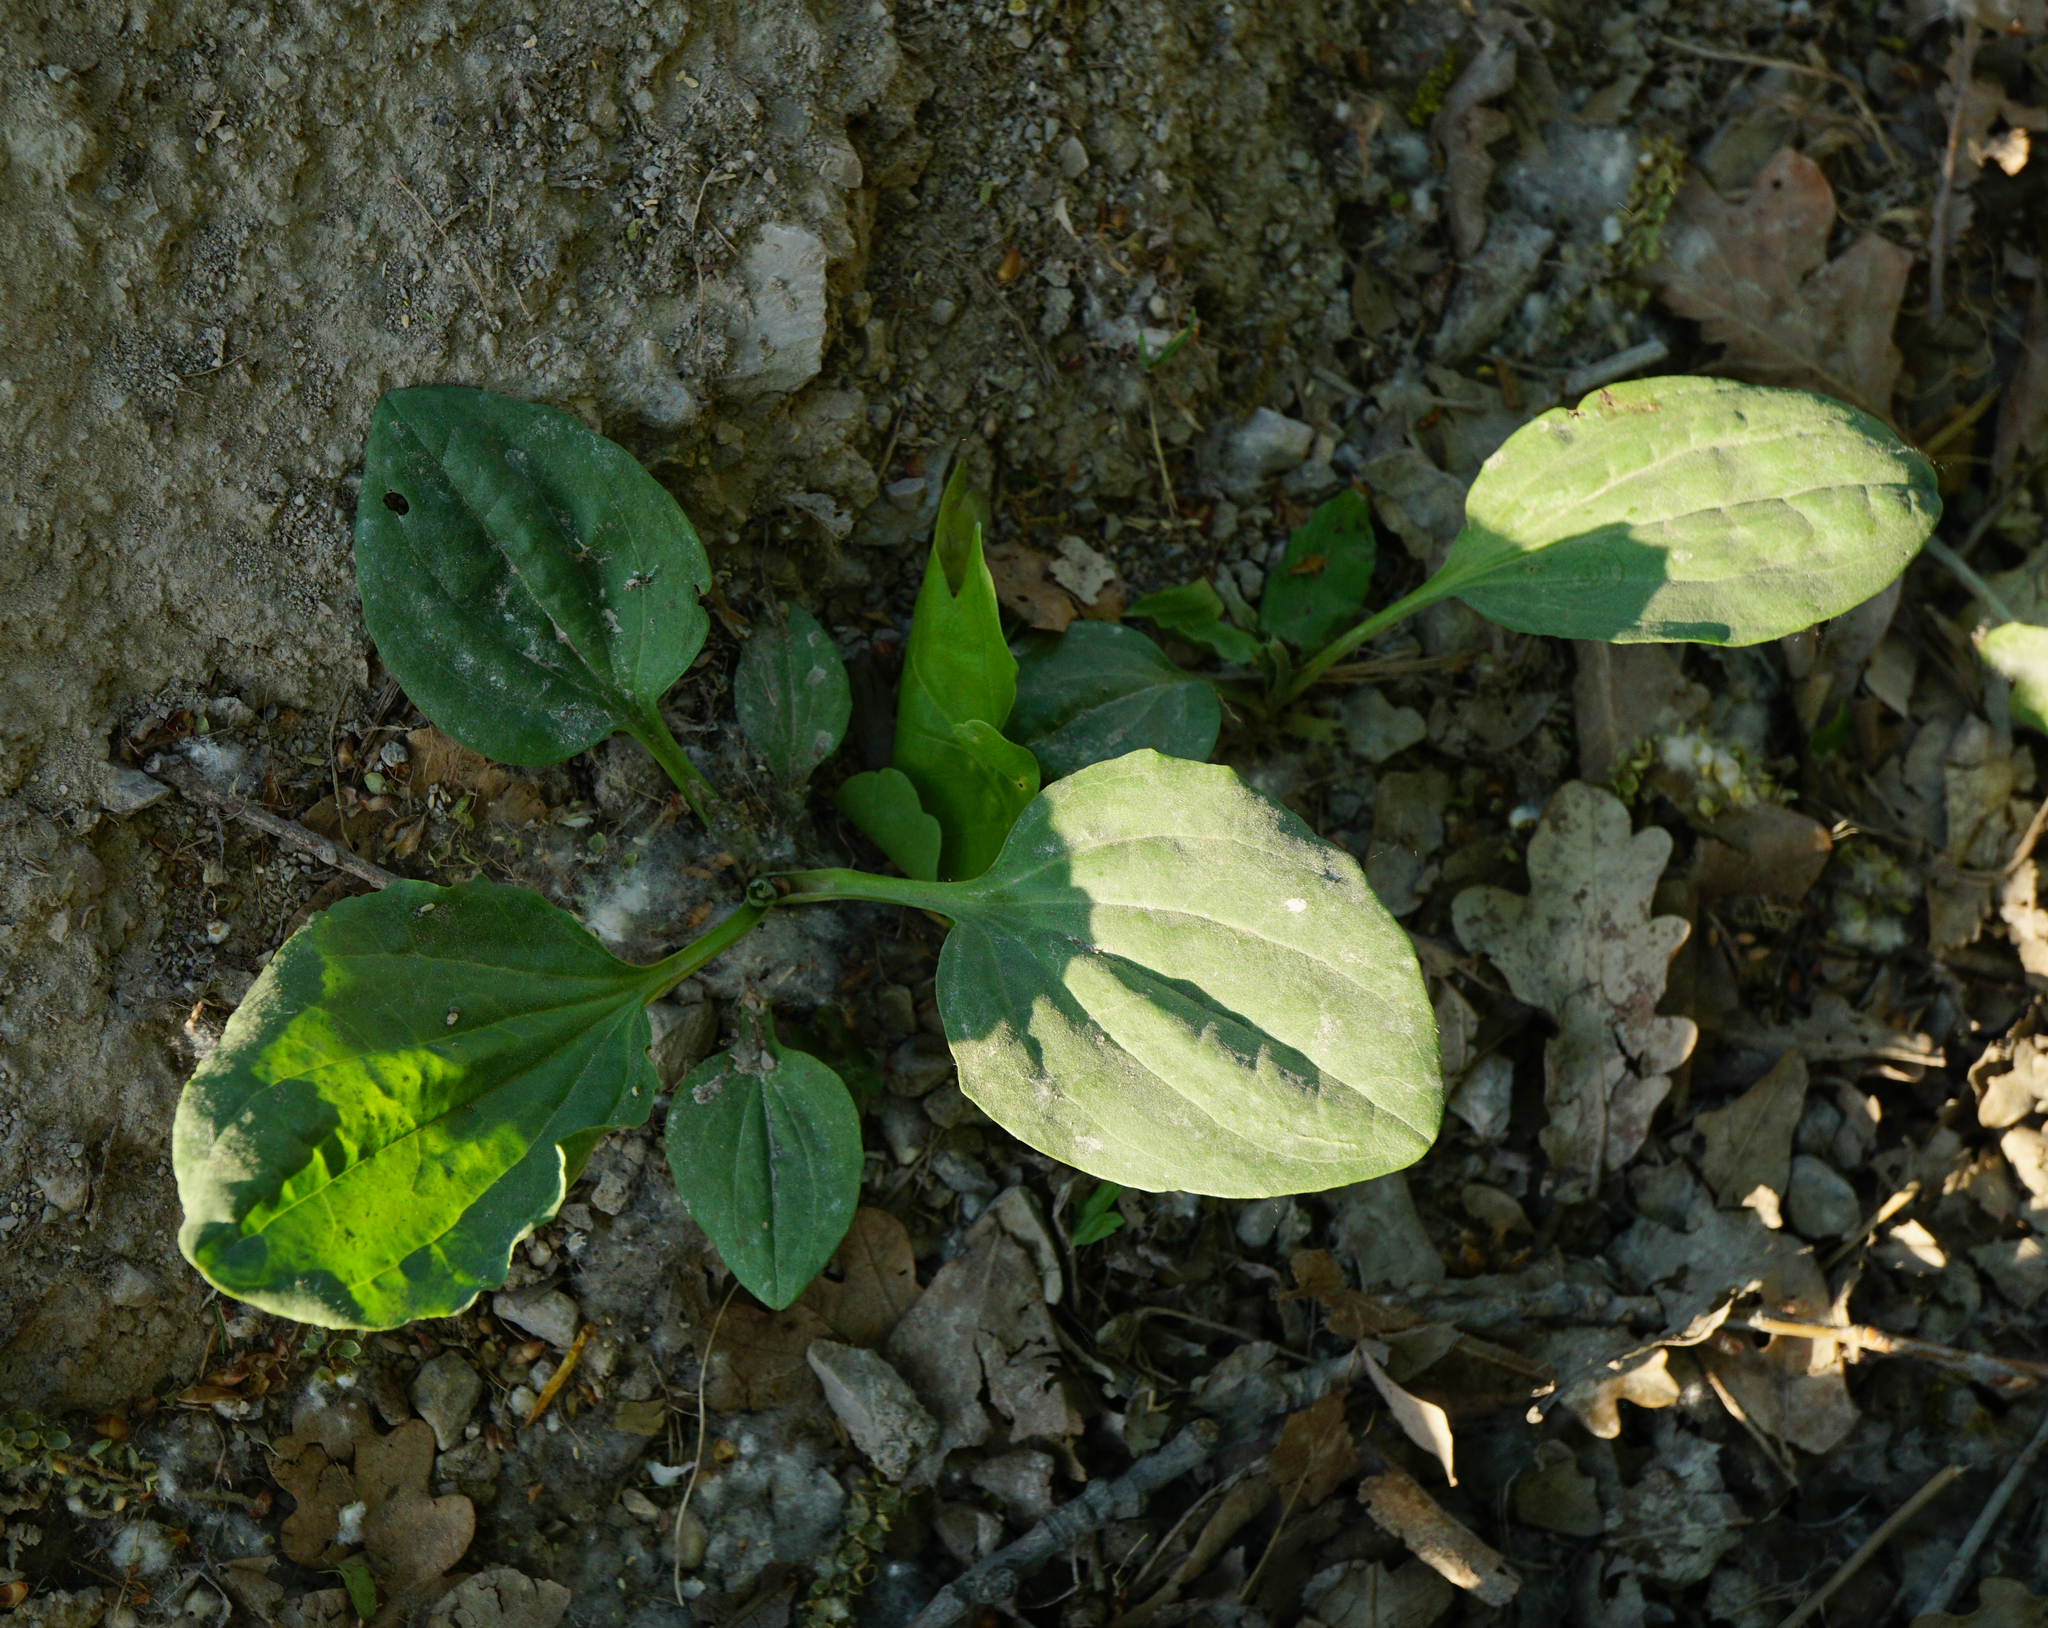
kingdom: Plantae
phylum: Tracheophyta
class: Magnoliopsida
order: Lamiales
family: Plantaginaceae
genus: Plantago
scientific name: Plantago major
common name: Common plantain
